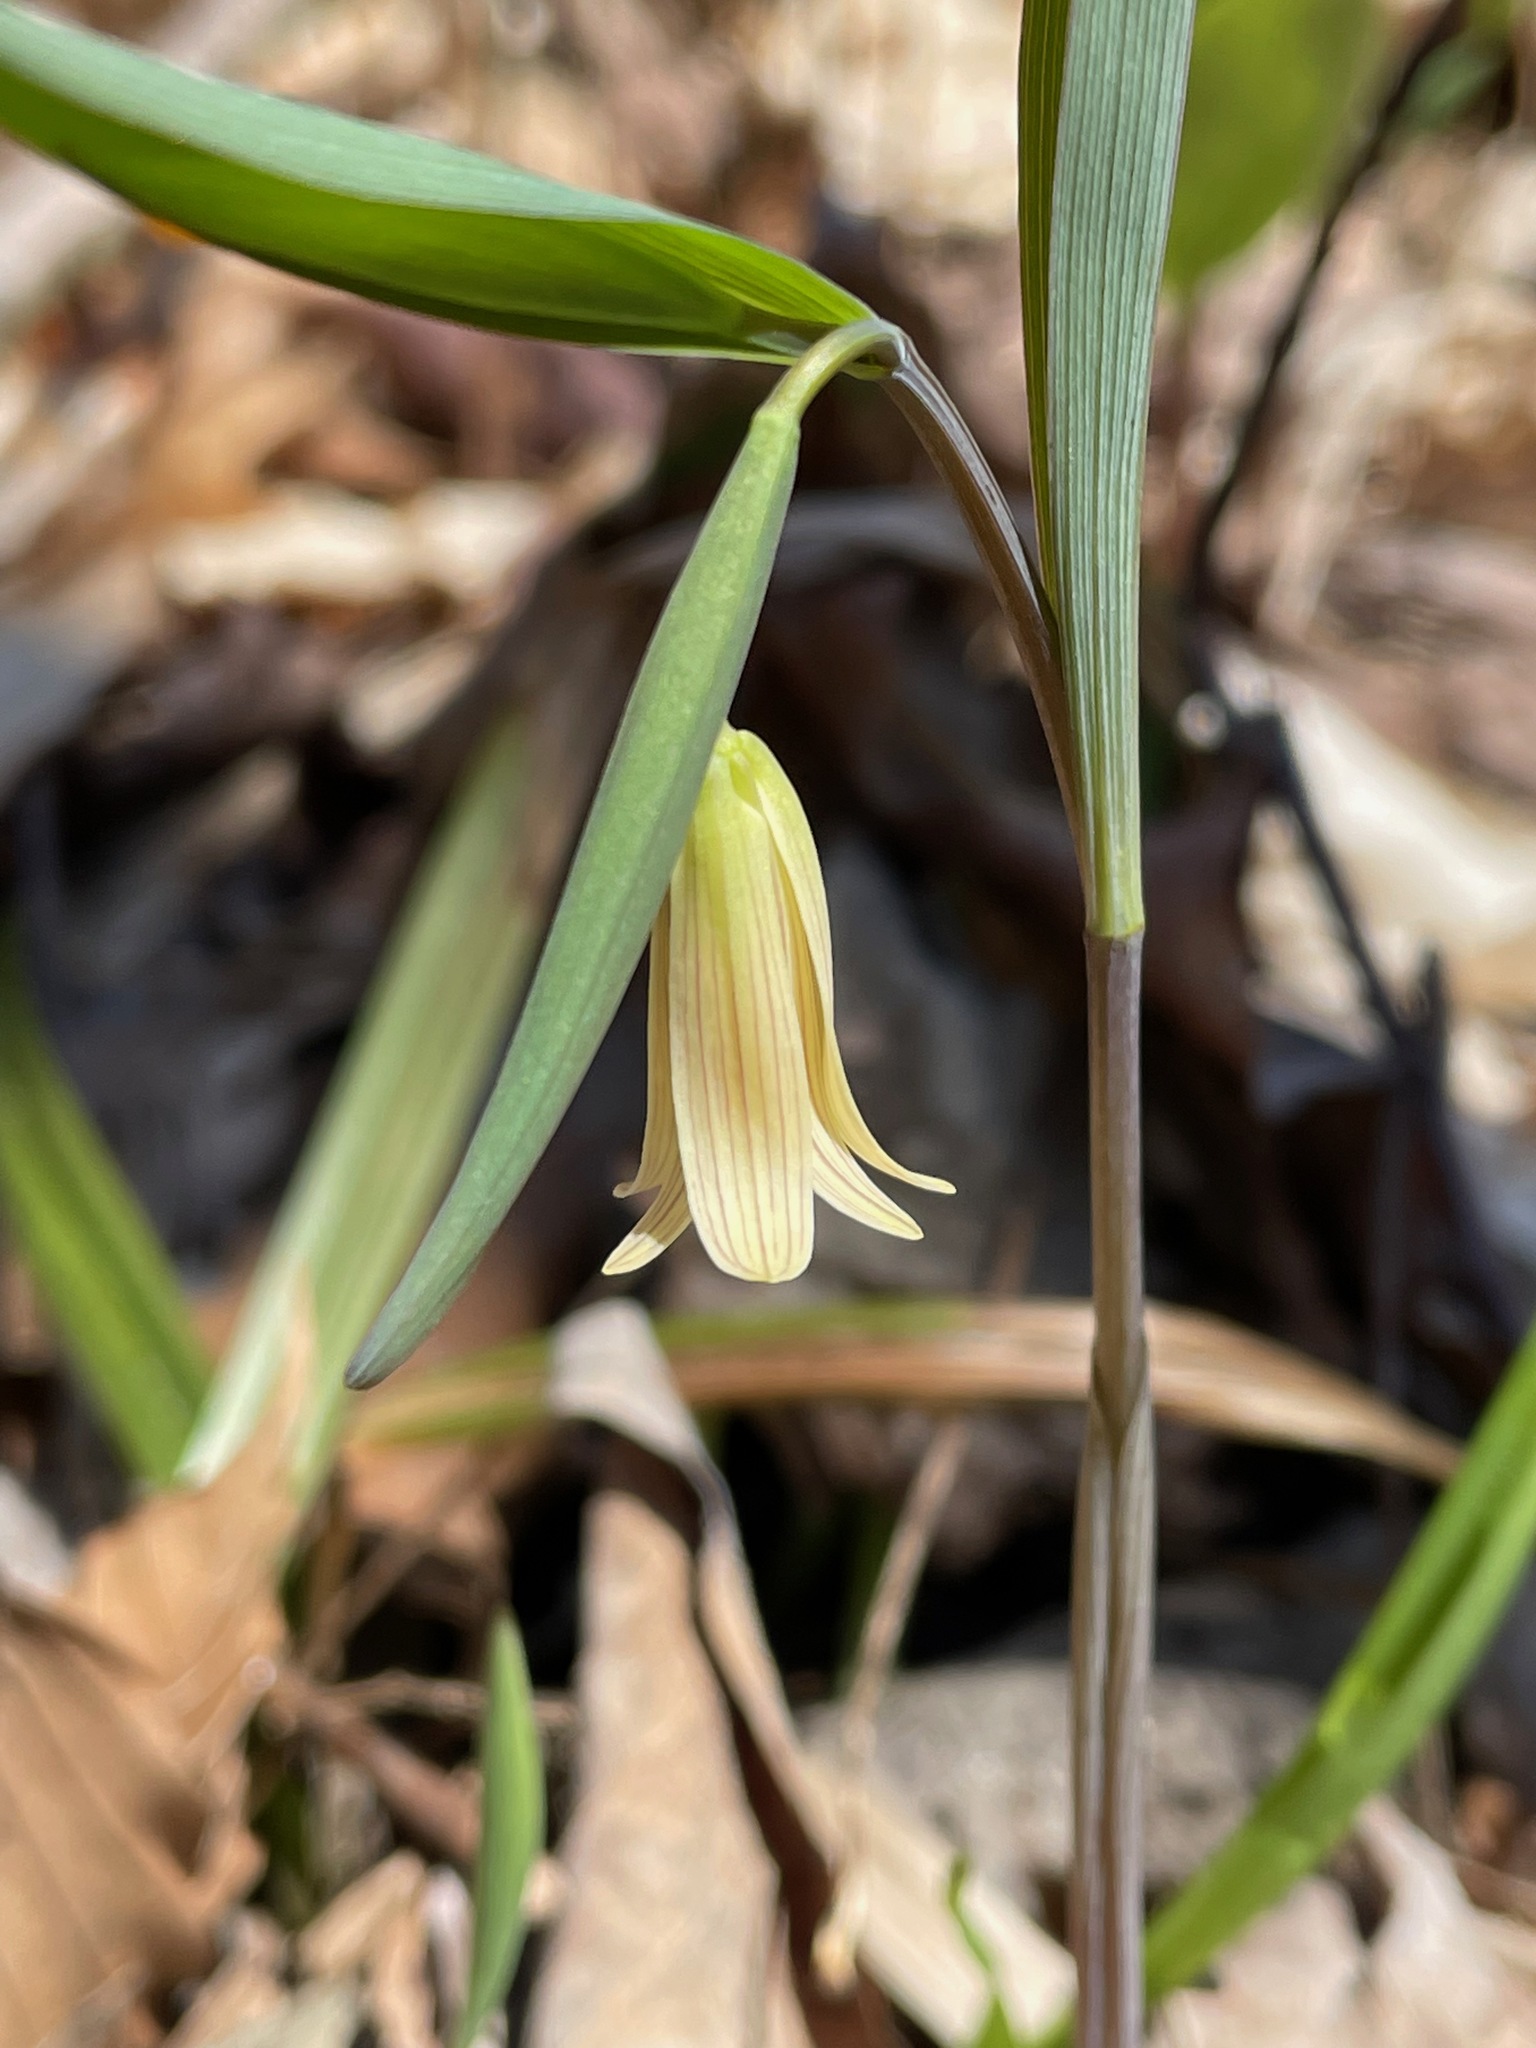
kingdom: Plantae
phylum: Tracheophyta
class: Liliopsida
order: Liliales
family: Colchicaceae
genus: Uvularia
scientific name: Uvularia sessilifolia
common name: Straw-lily
